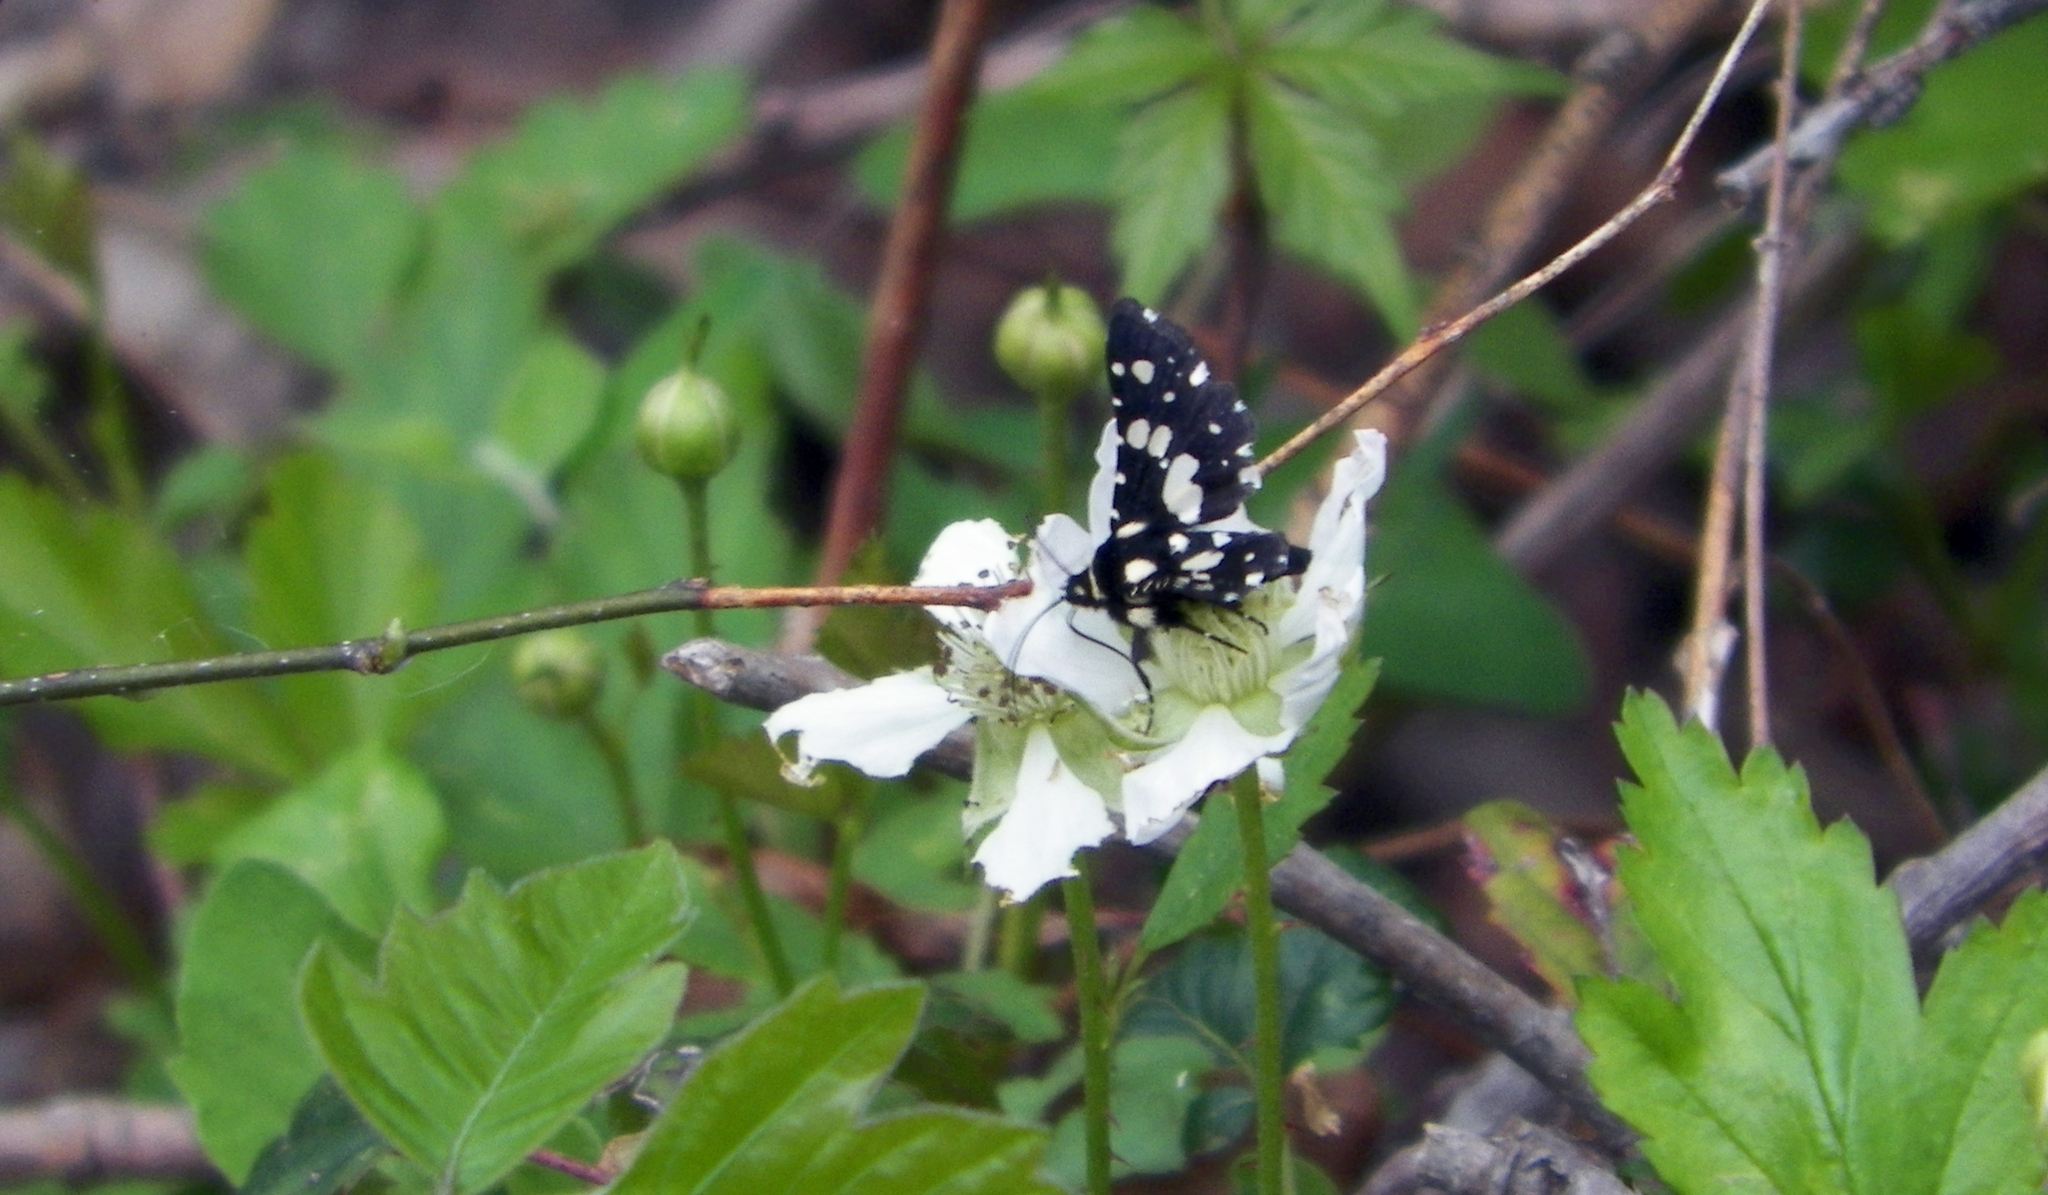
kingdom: Animalia
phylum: Arthropoda
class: Insecta
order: Lepidoptera
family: Thyrididae
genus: Pseudothyris
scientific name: Pseudothyris sepulchralis
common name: Mournful thyris moth
